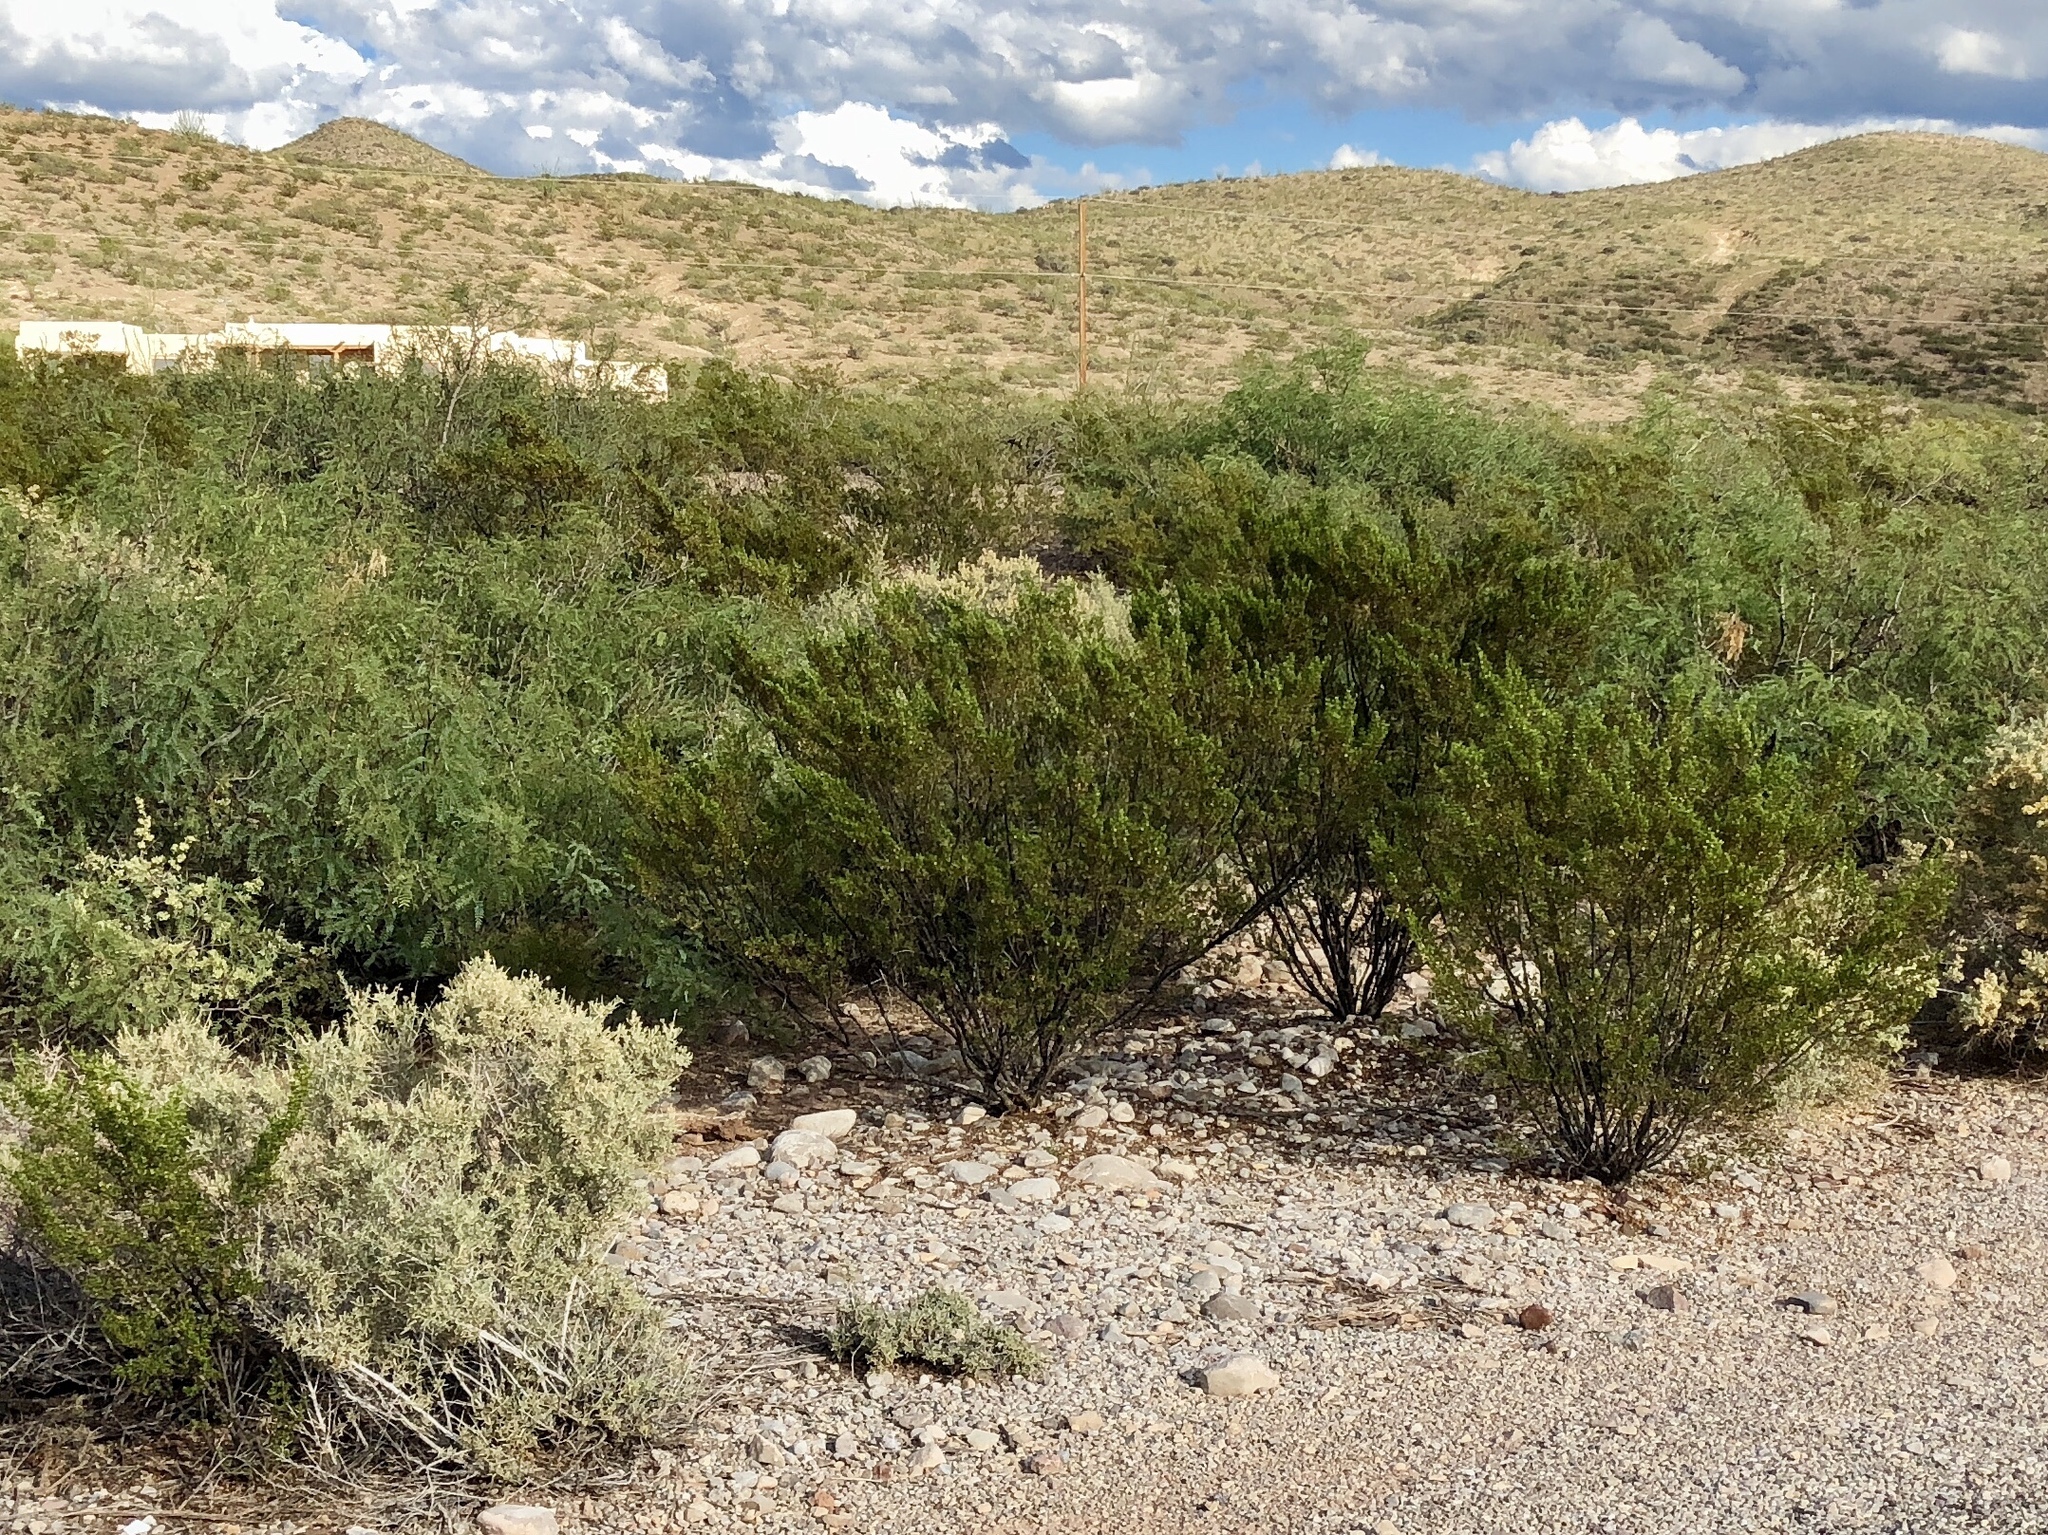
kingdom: Plantae
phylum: Tracheophyta
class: Magnoliopsida
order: Zygophyllales
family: Zygophyllaceae
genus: Larrea
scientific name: Larrea tridentata
